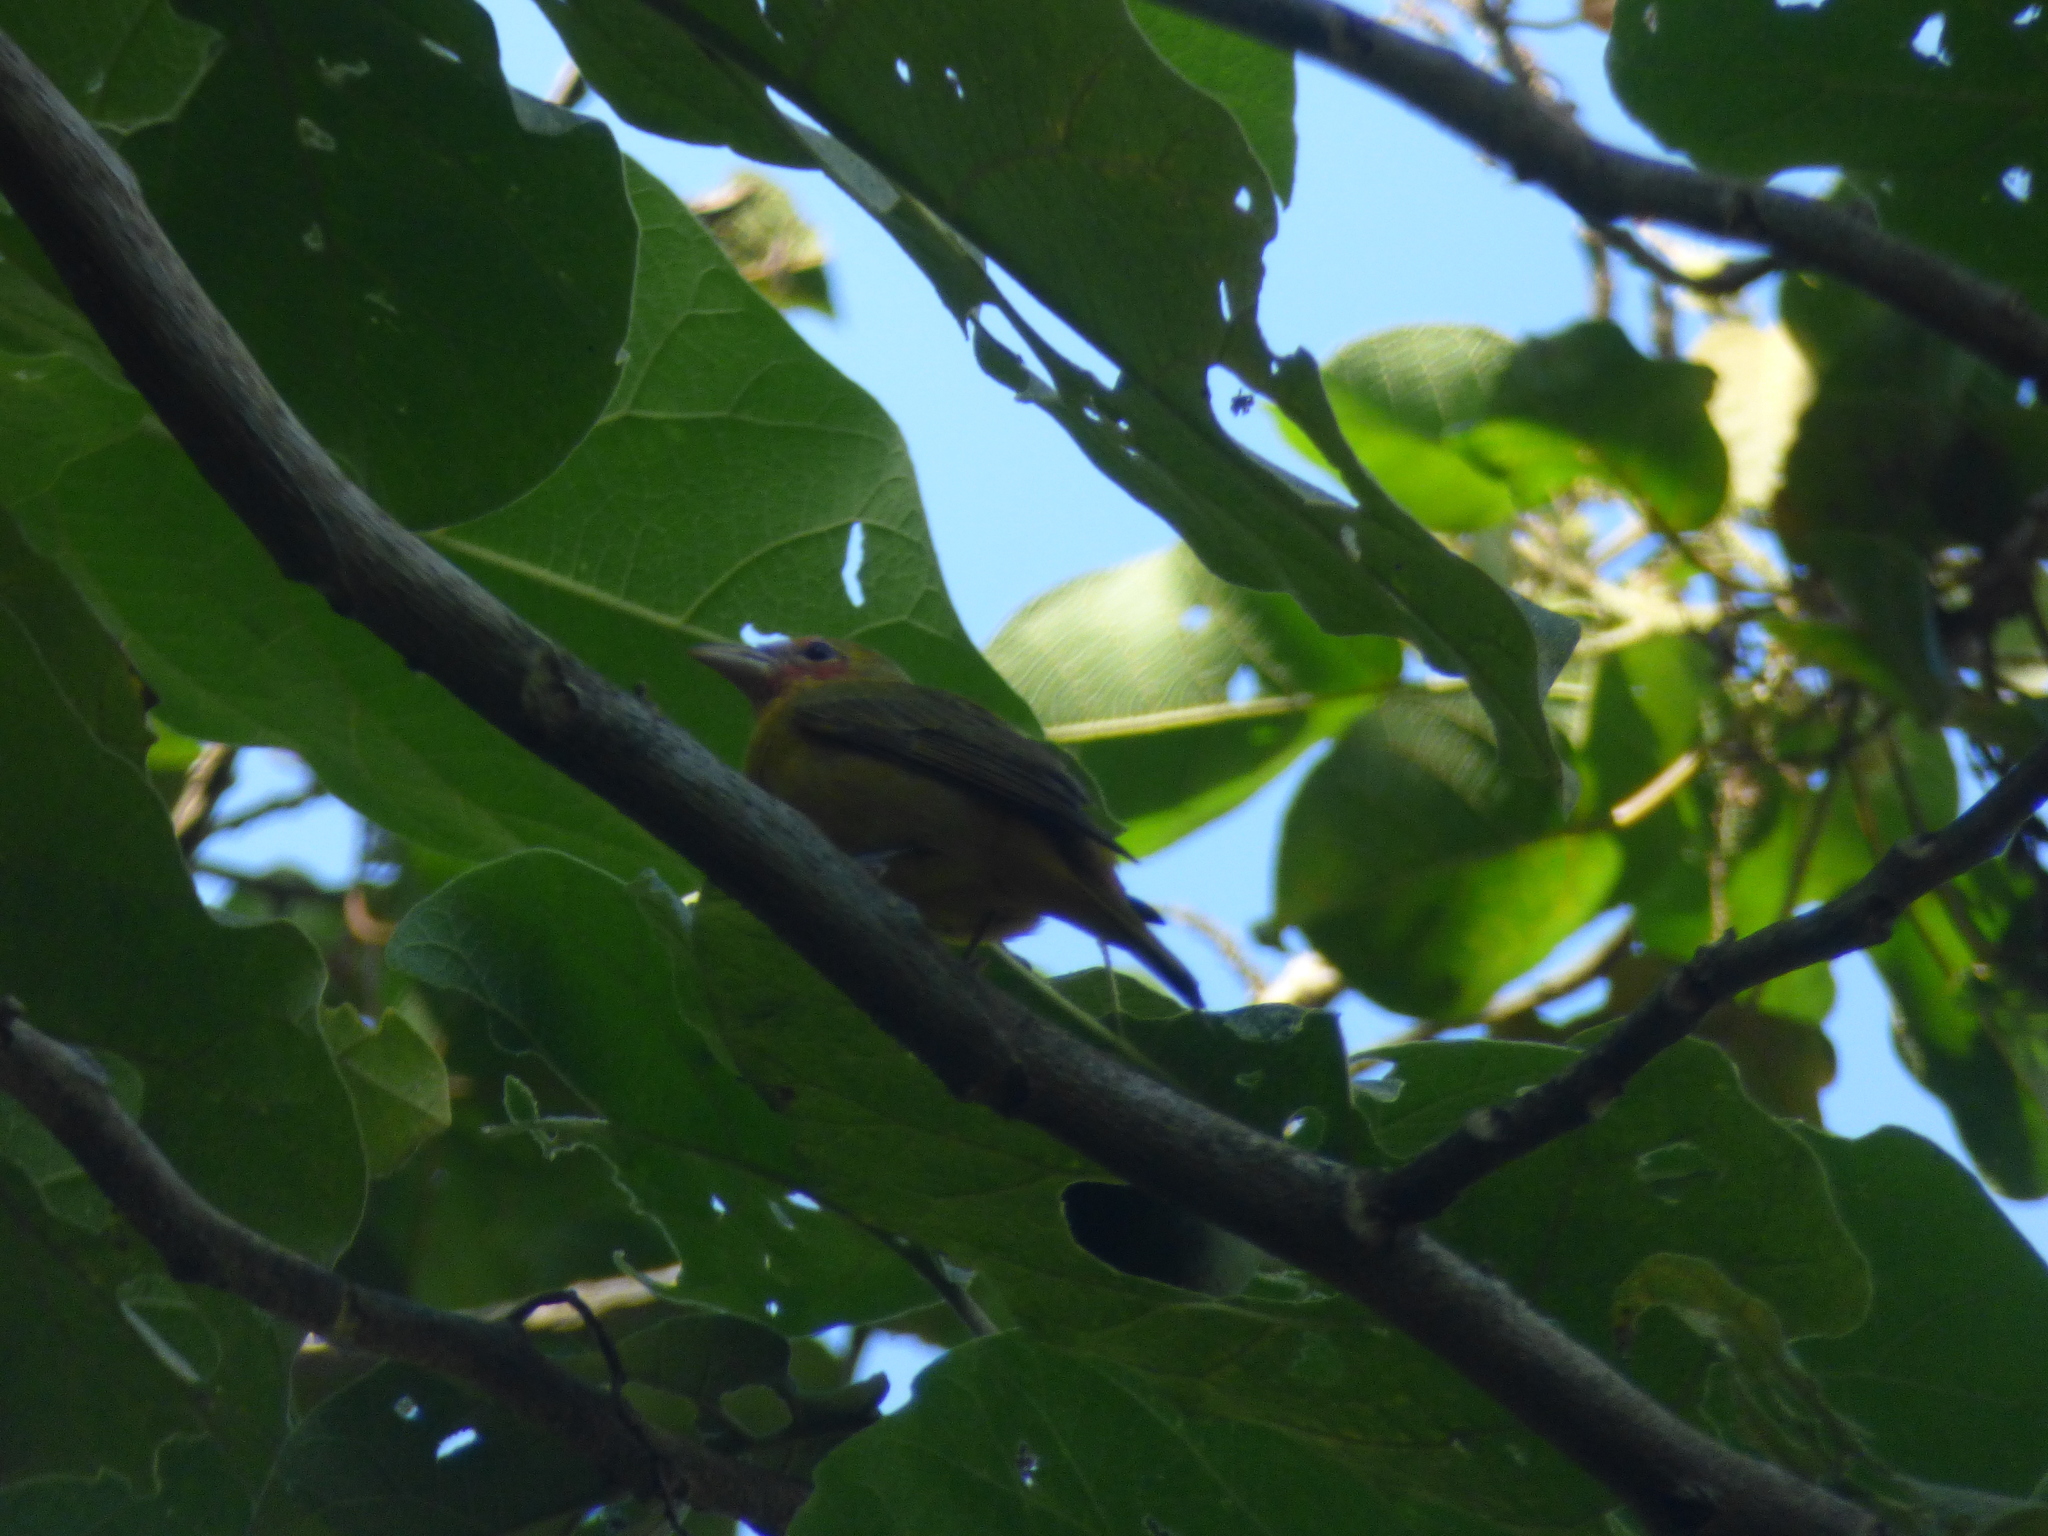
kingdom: Animalia
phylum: Chordata
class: Aves
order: Passeriformes
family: Cardinalidae
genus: Piranga
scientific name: Piranga rubra
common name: Summer tanager
